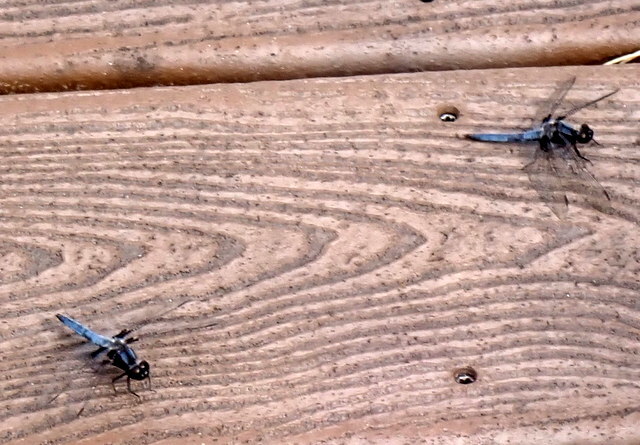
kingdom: Animalia
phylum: Arthropoda
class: Insecta
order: Odonata
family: Libellulidae
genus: Ladona
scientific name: Ladona deplanata
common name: Blue corporal
